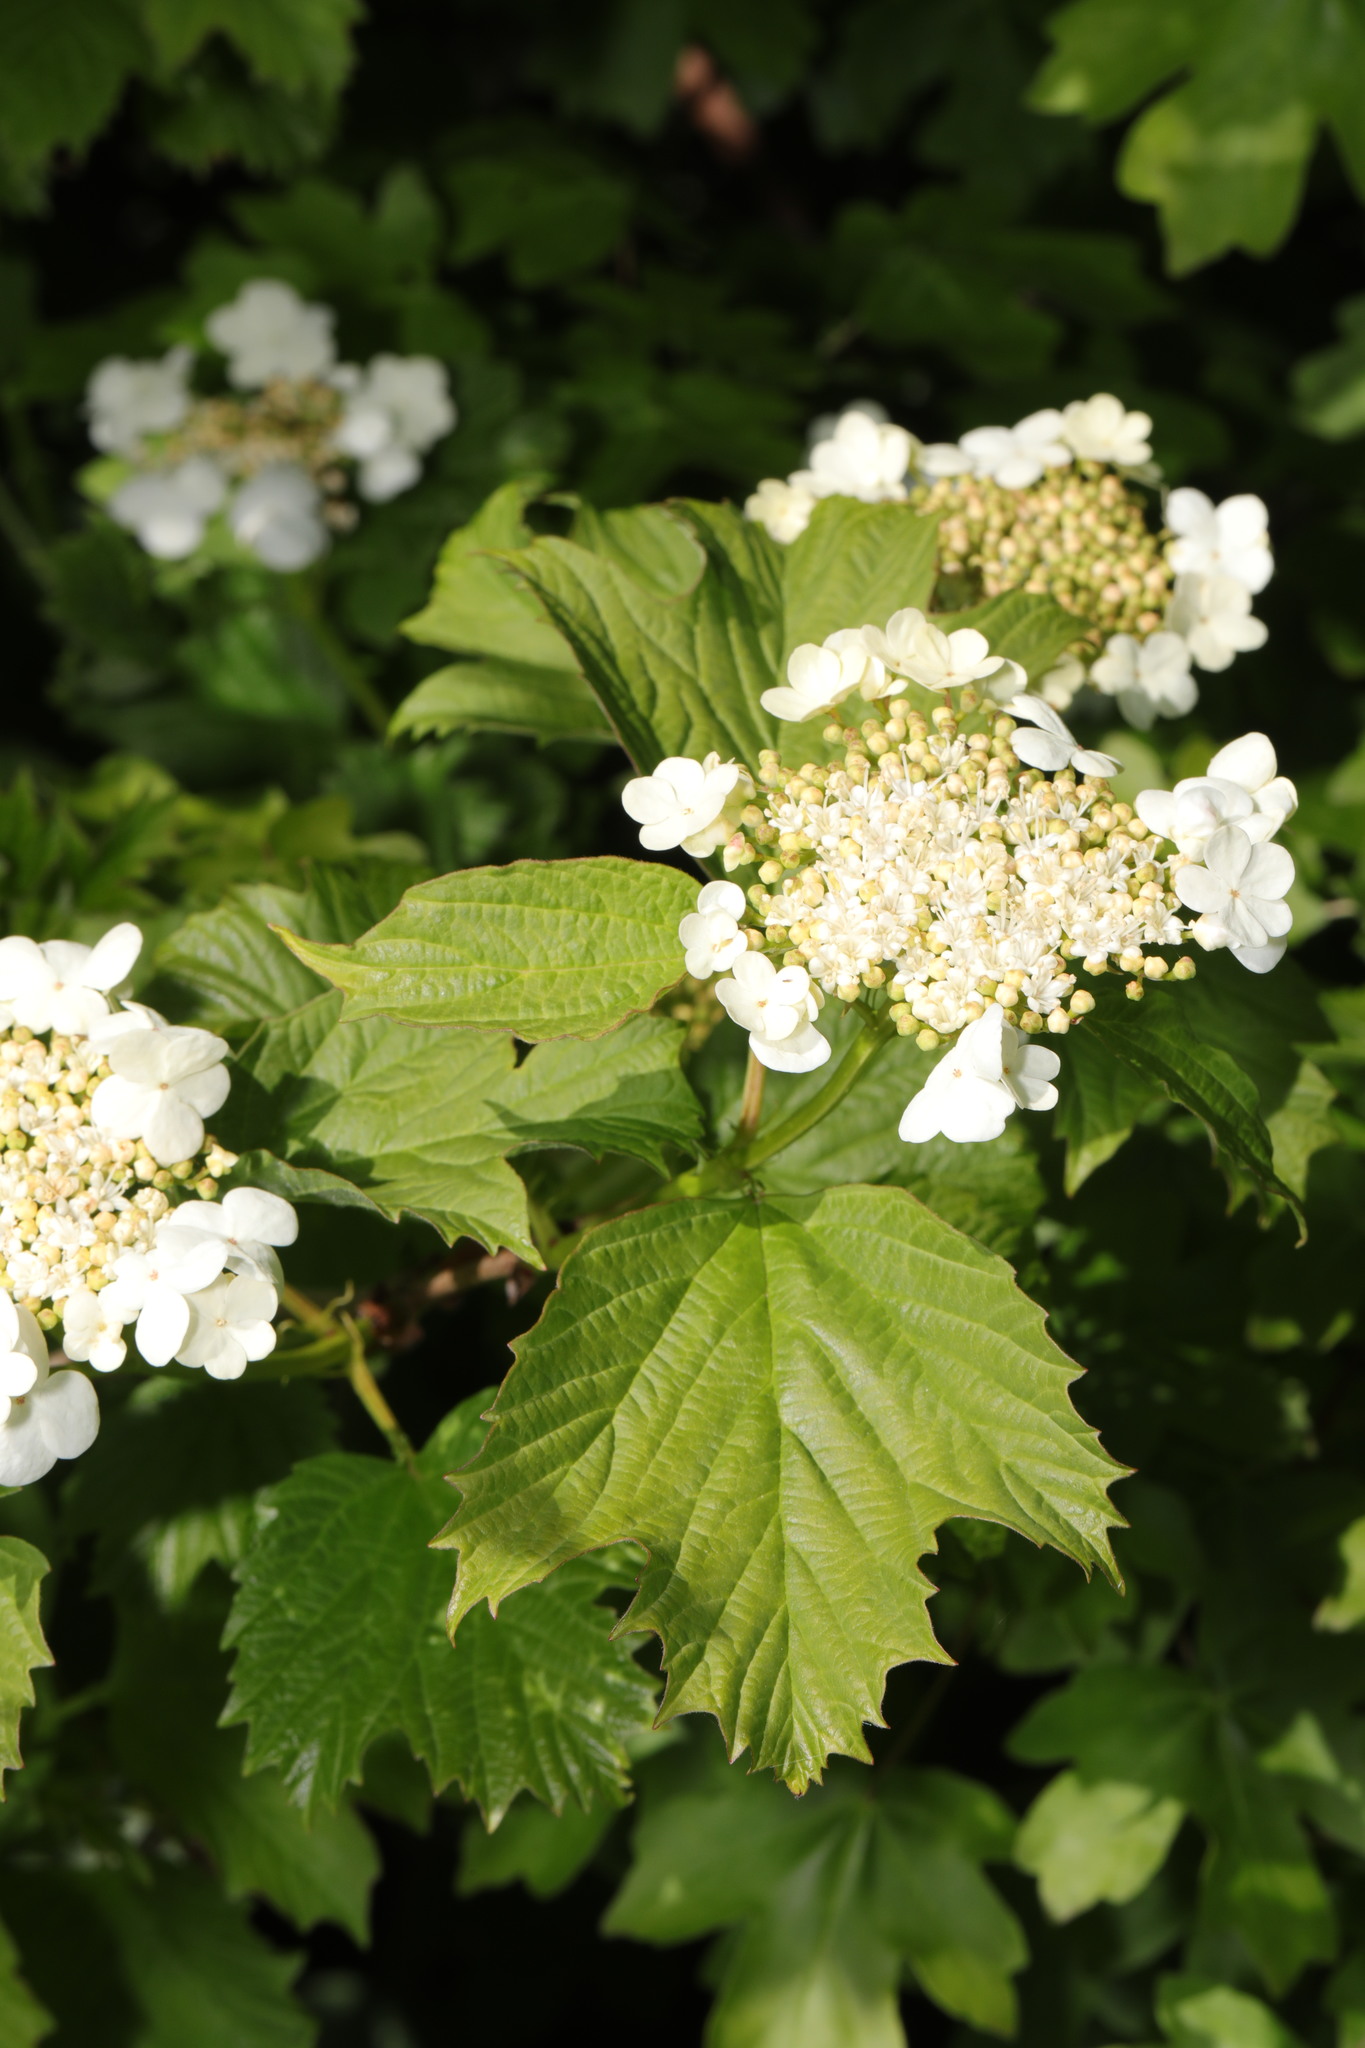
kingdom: Plantae
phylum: Tracheophyta
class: Magnoliopsida
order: Dipsacales
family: Viburnaceae
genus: Viburnum
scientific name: Viburnum opulus
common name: Guelder-rose
